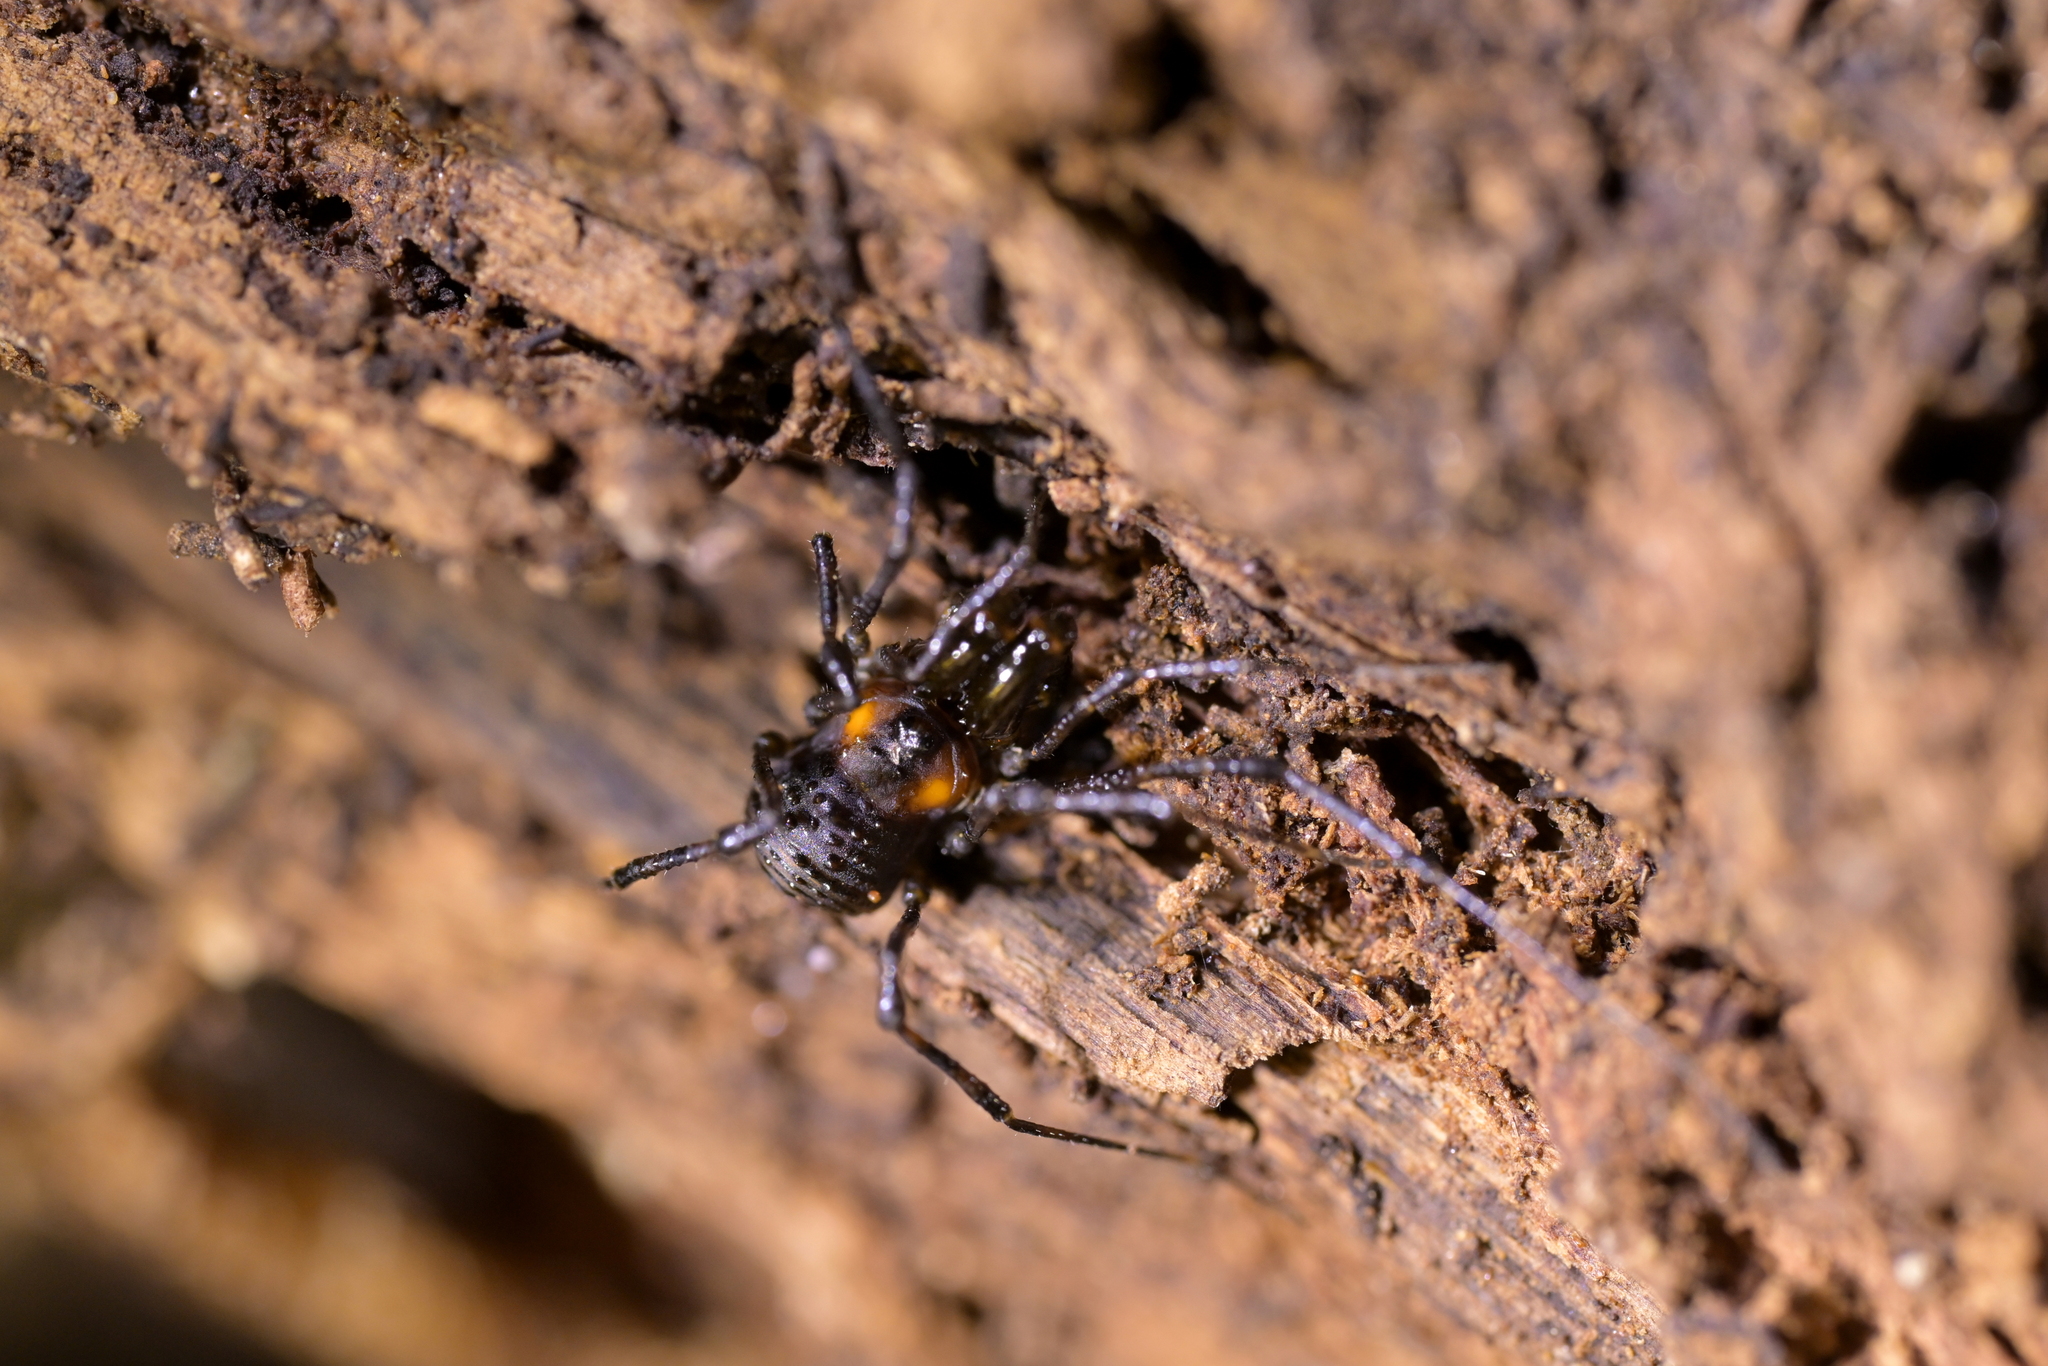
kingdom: Animalia
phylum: Arthropoda
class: Arachnida
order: Opiliones
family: Triaenonychidae
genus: Hendea
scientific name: Hendea myersi
